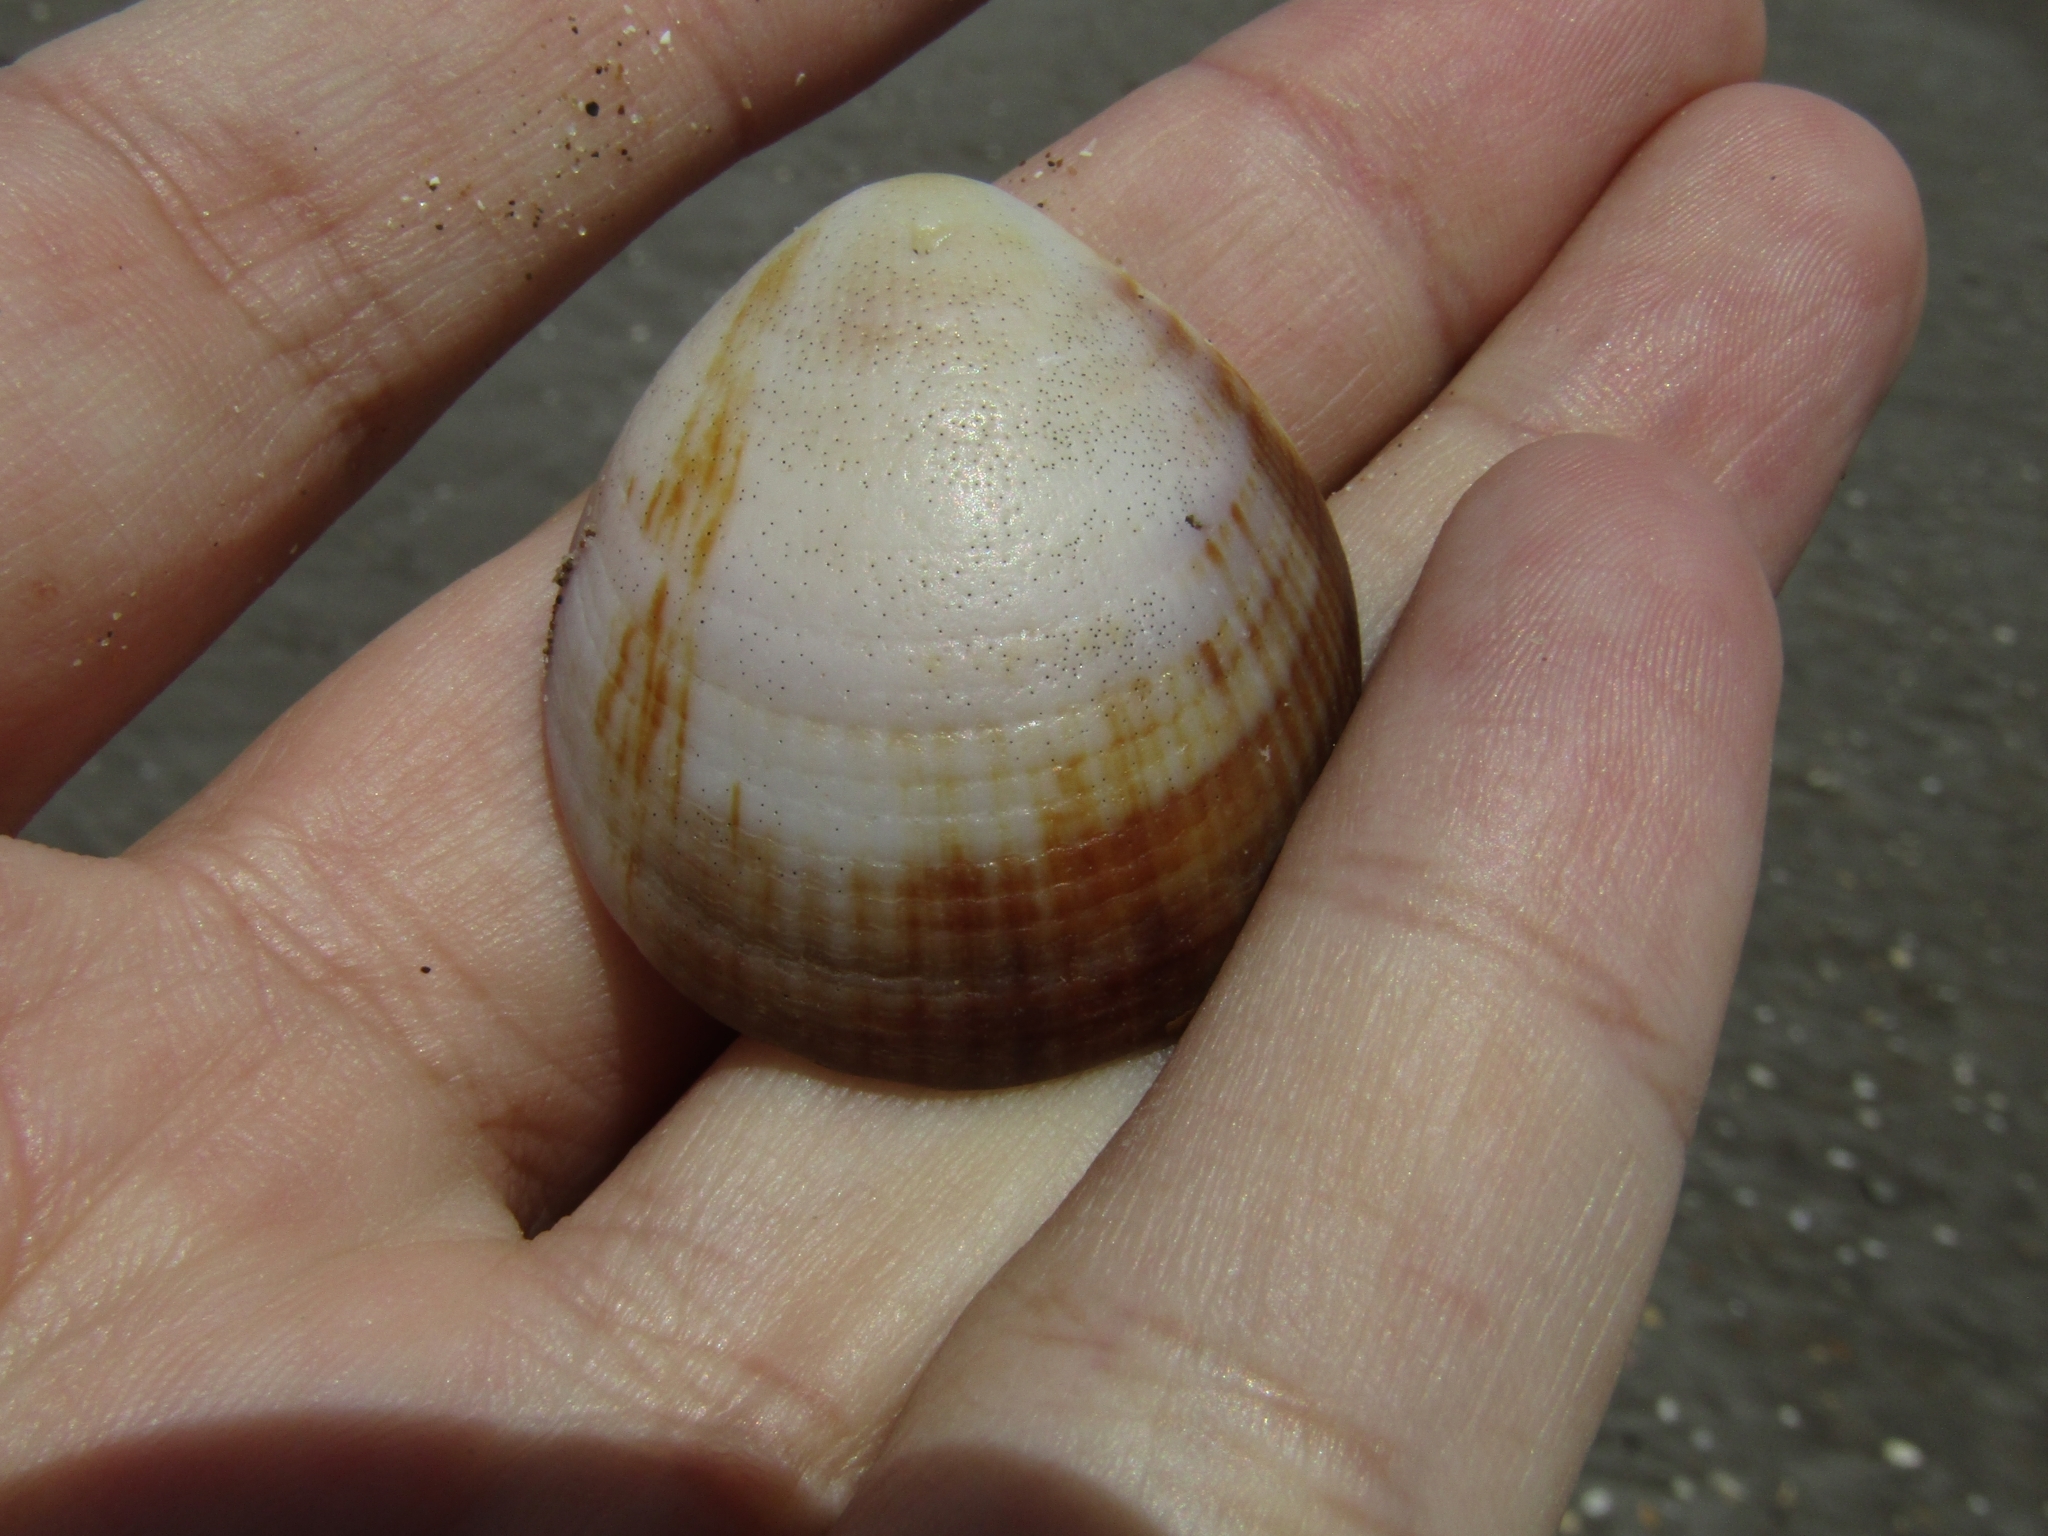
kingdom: Animalia
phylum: Mollusca
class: Bivalvia
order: Arcida
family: Glycymerididae
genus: Glycymeris
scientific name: Glycymeris longior
